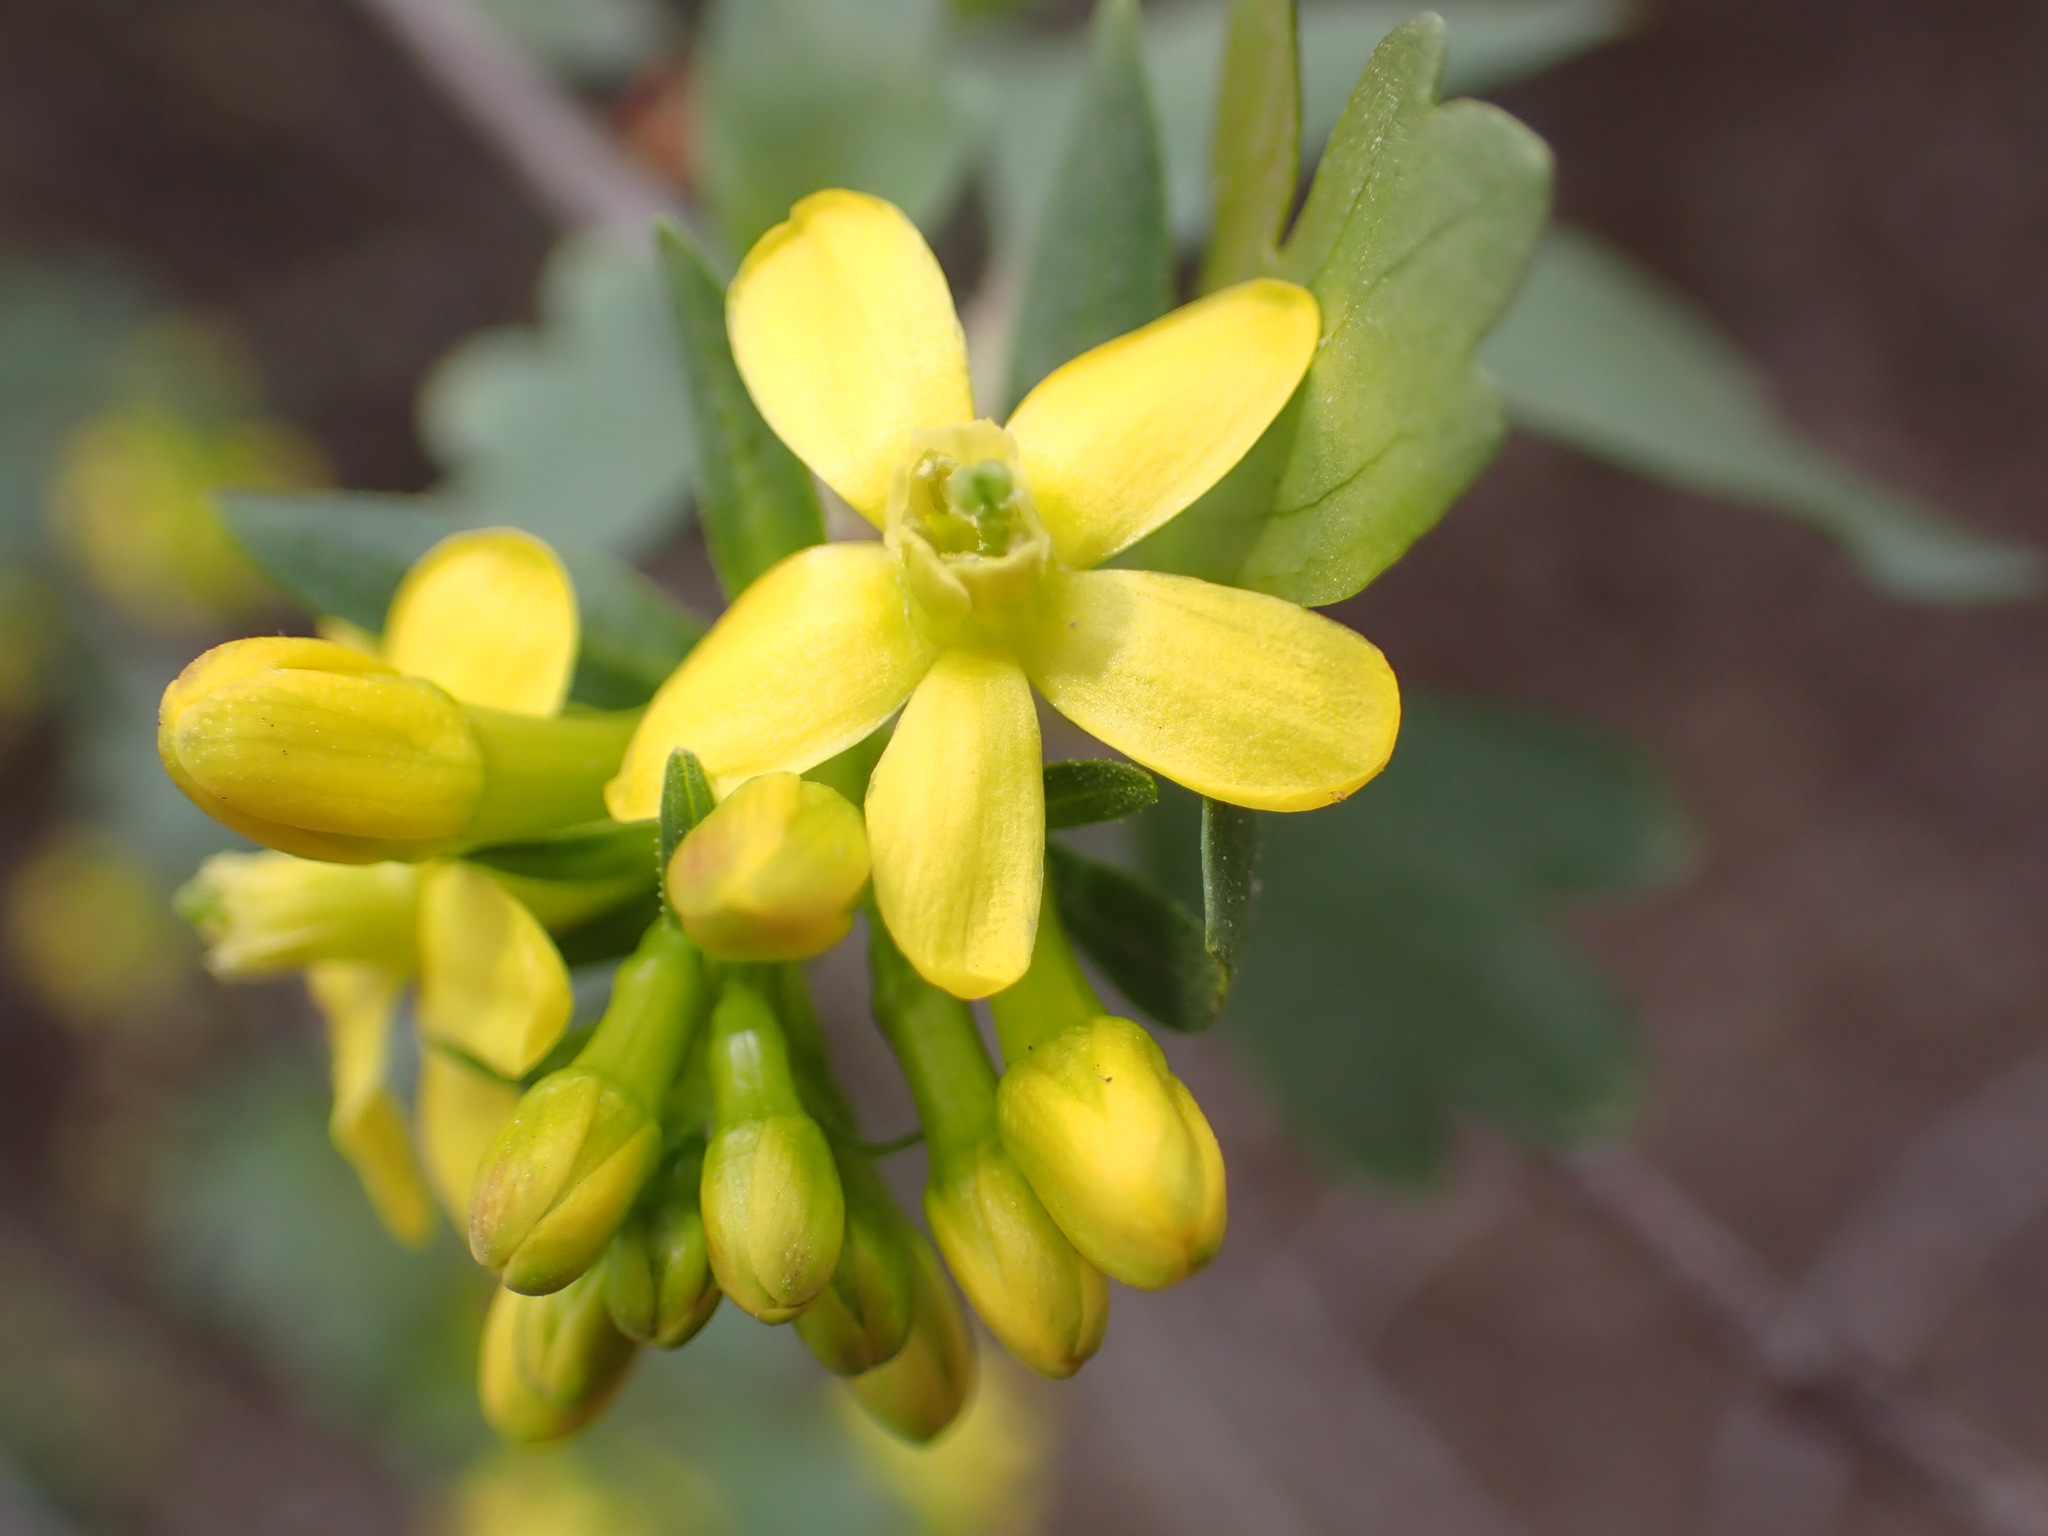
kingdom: Plantae
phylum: Tracheophyta
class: Magnoliopsida
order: Saxifragales
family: Grossulariaceae
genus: Ribes
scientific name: Ribes aureum
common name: Golden currant
